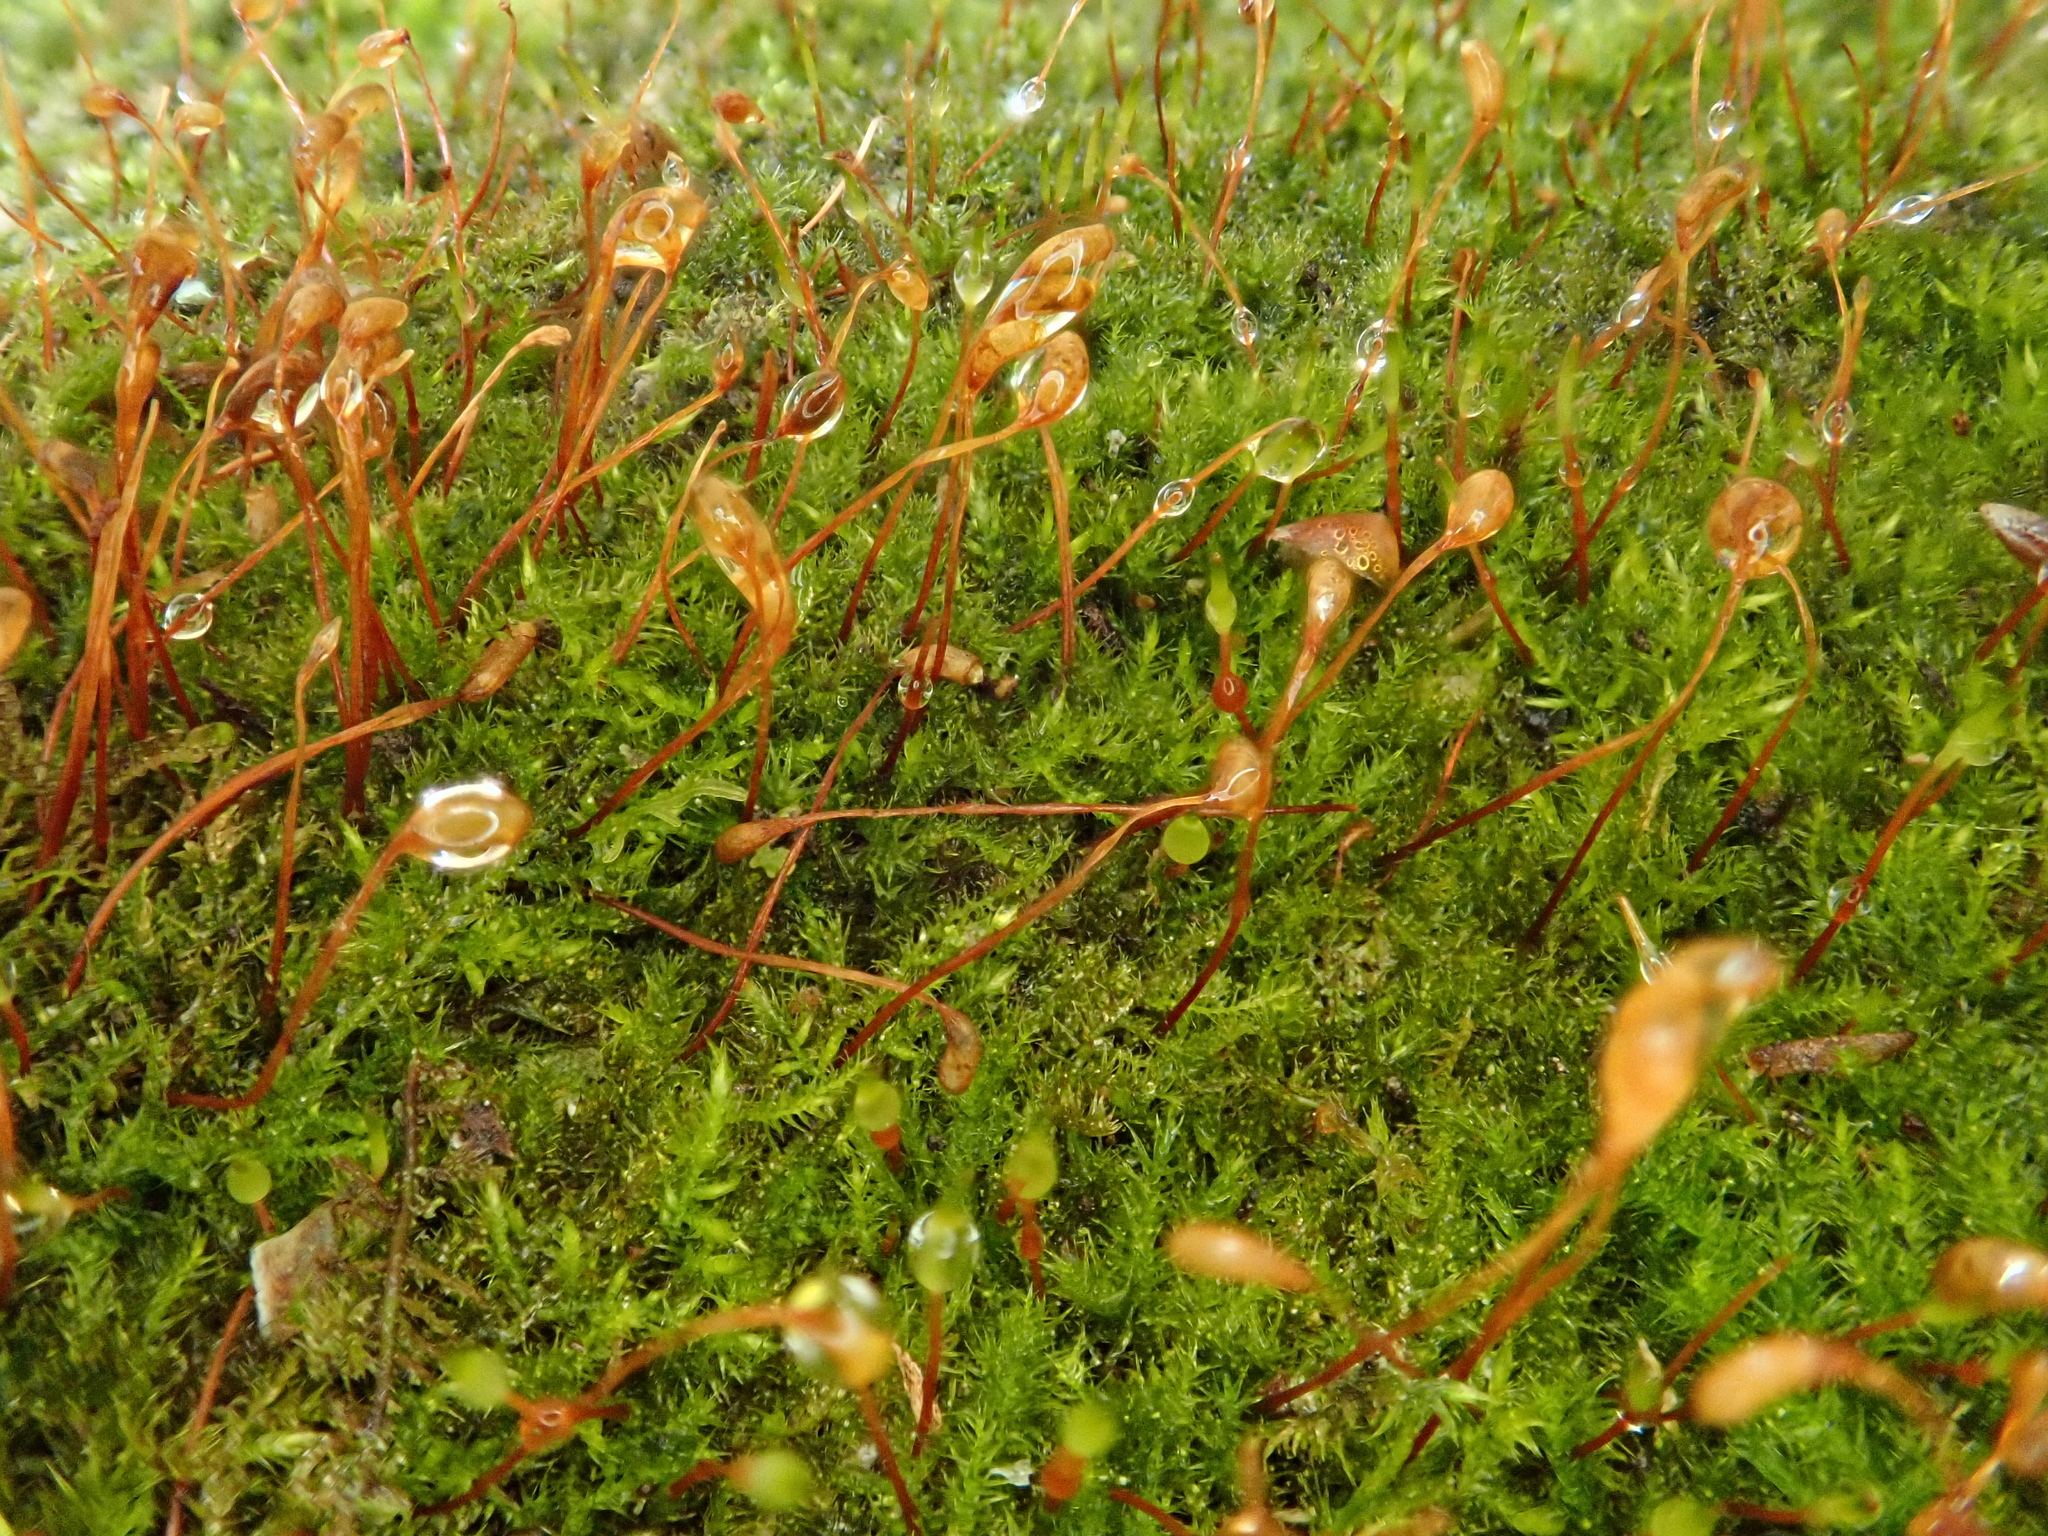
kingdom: Plantae
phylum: Bryophyta
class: Bryopsida
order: Hypnales
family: Pylaisiaceae
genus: Homomallium
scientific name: Homomallium incurvatum
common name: Incurved feather-moss
